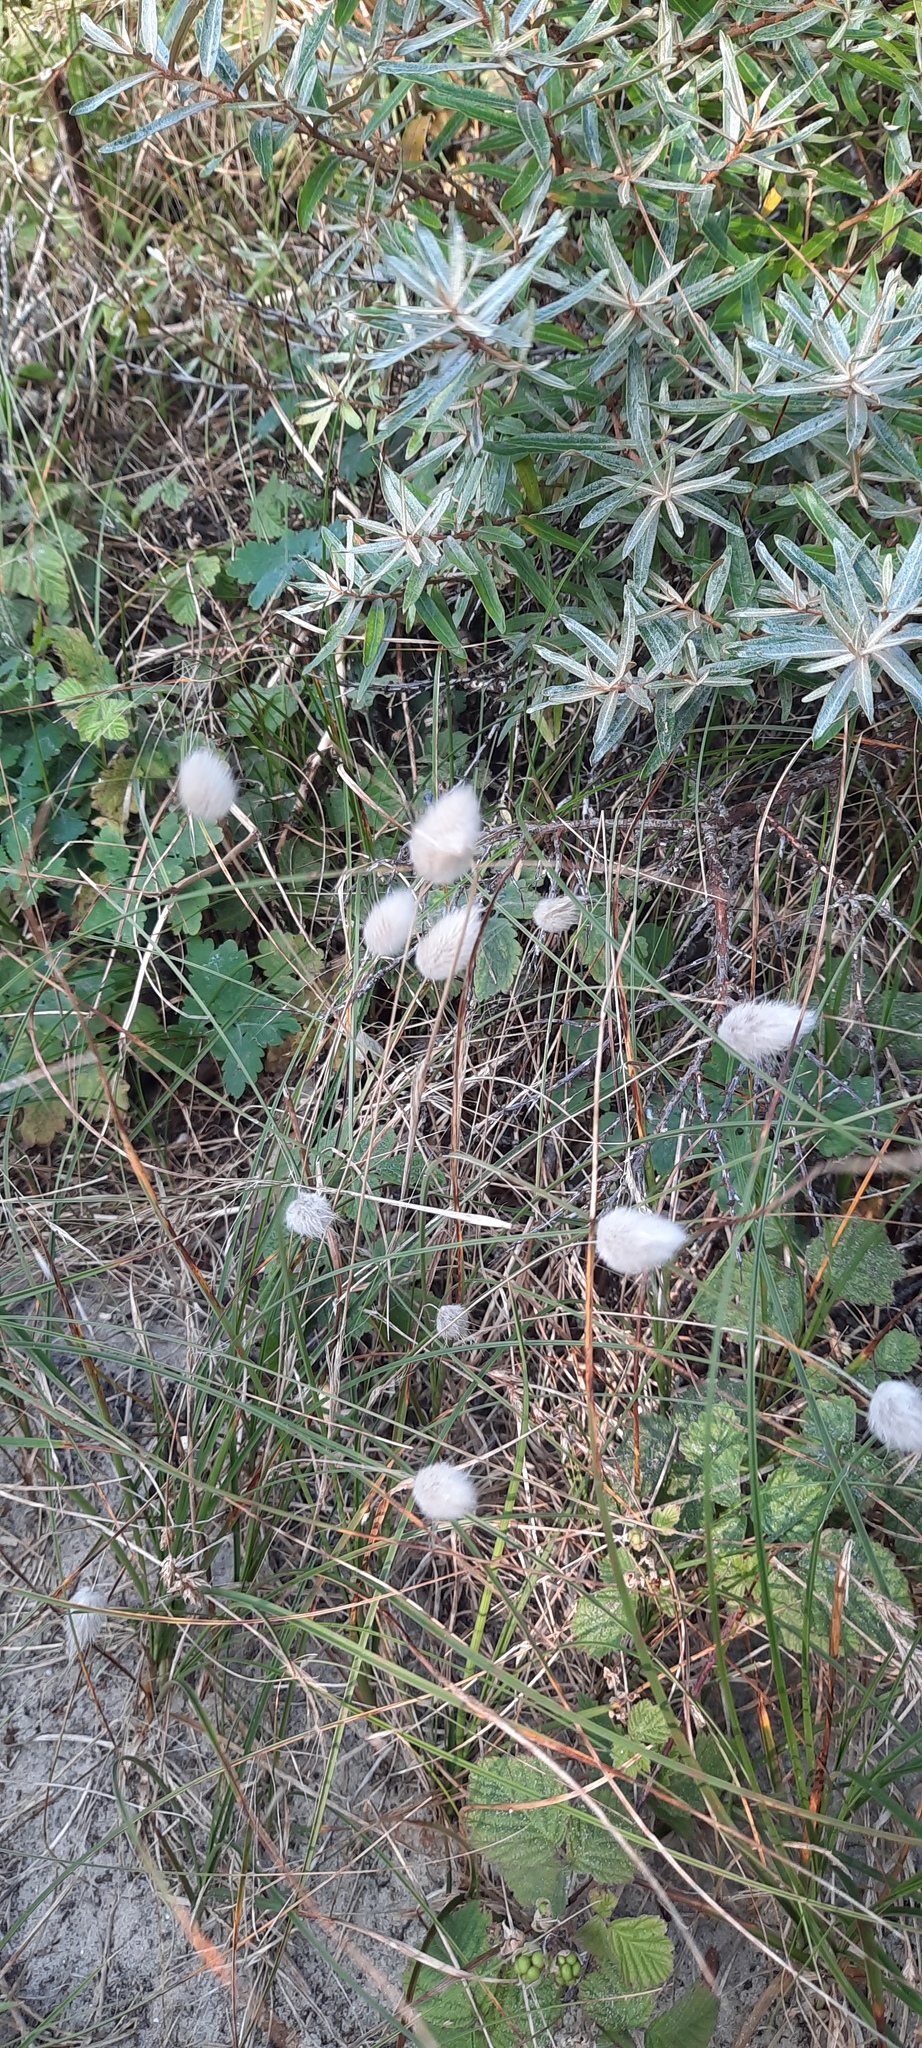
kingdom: Plantae
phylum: Tracheophyta
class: Liliopsida
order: Poales
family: Poaceae
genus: Lagurus
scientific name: Lagurus ovatus
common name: Hare's-tail
